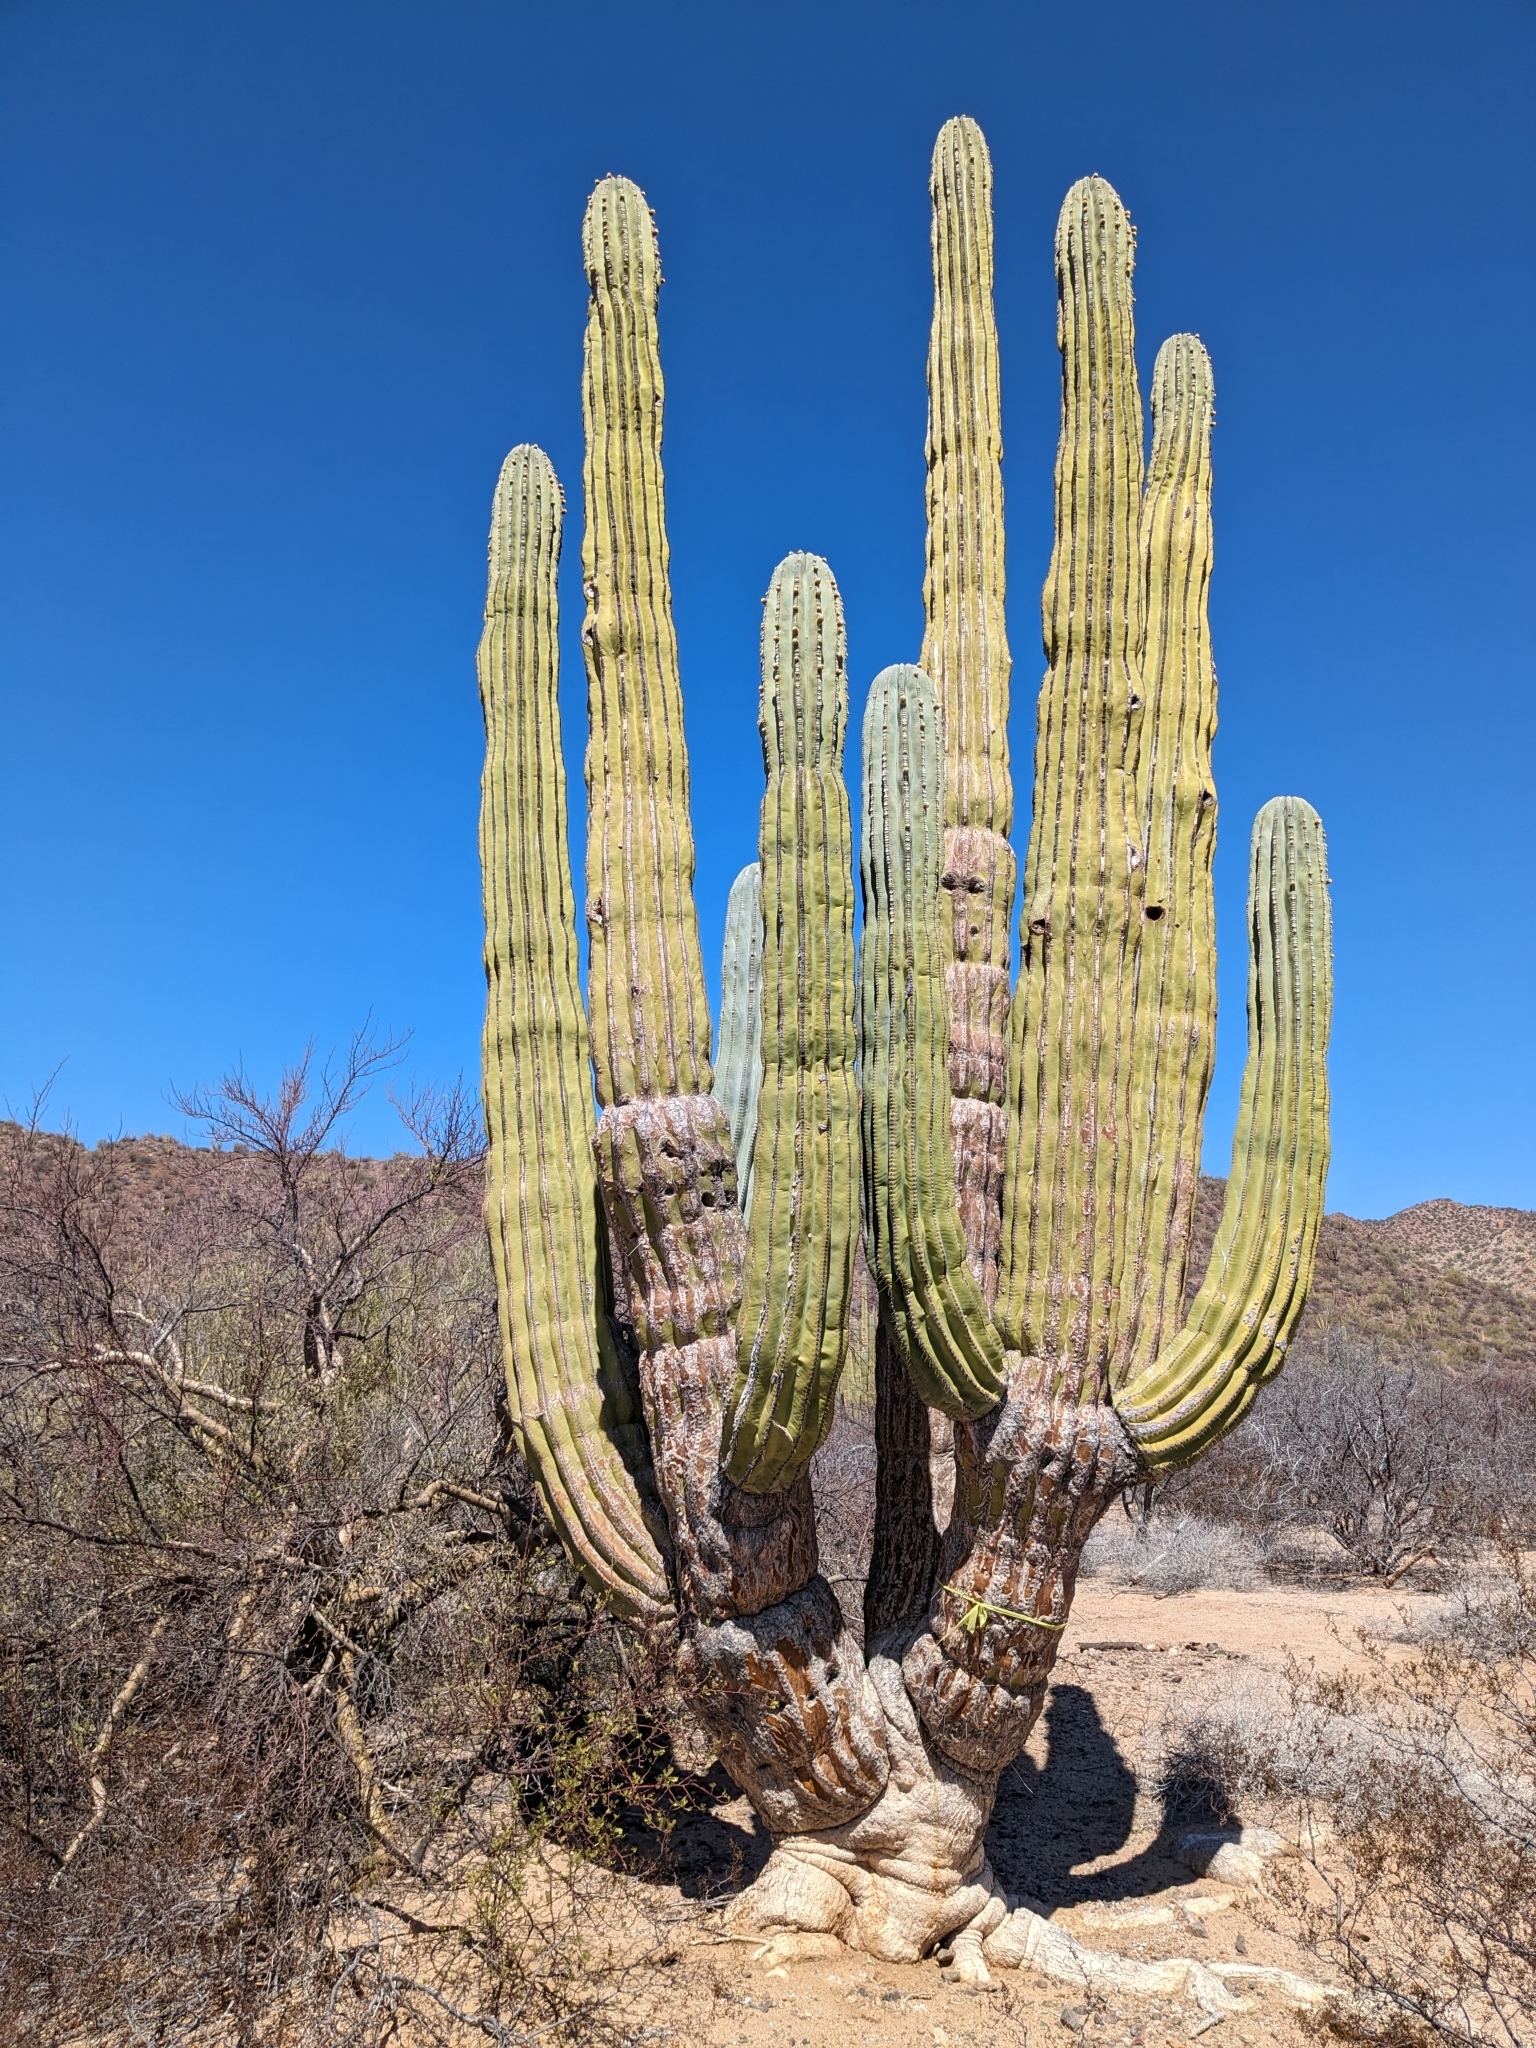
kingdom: Plantae
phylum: Tracheophyta
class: Magnoliopsida
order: Caryophyllales
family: Cactaceae
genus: Pachycereus
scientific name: Pachycereus pringlei
